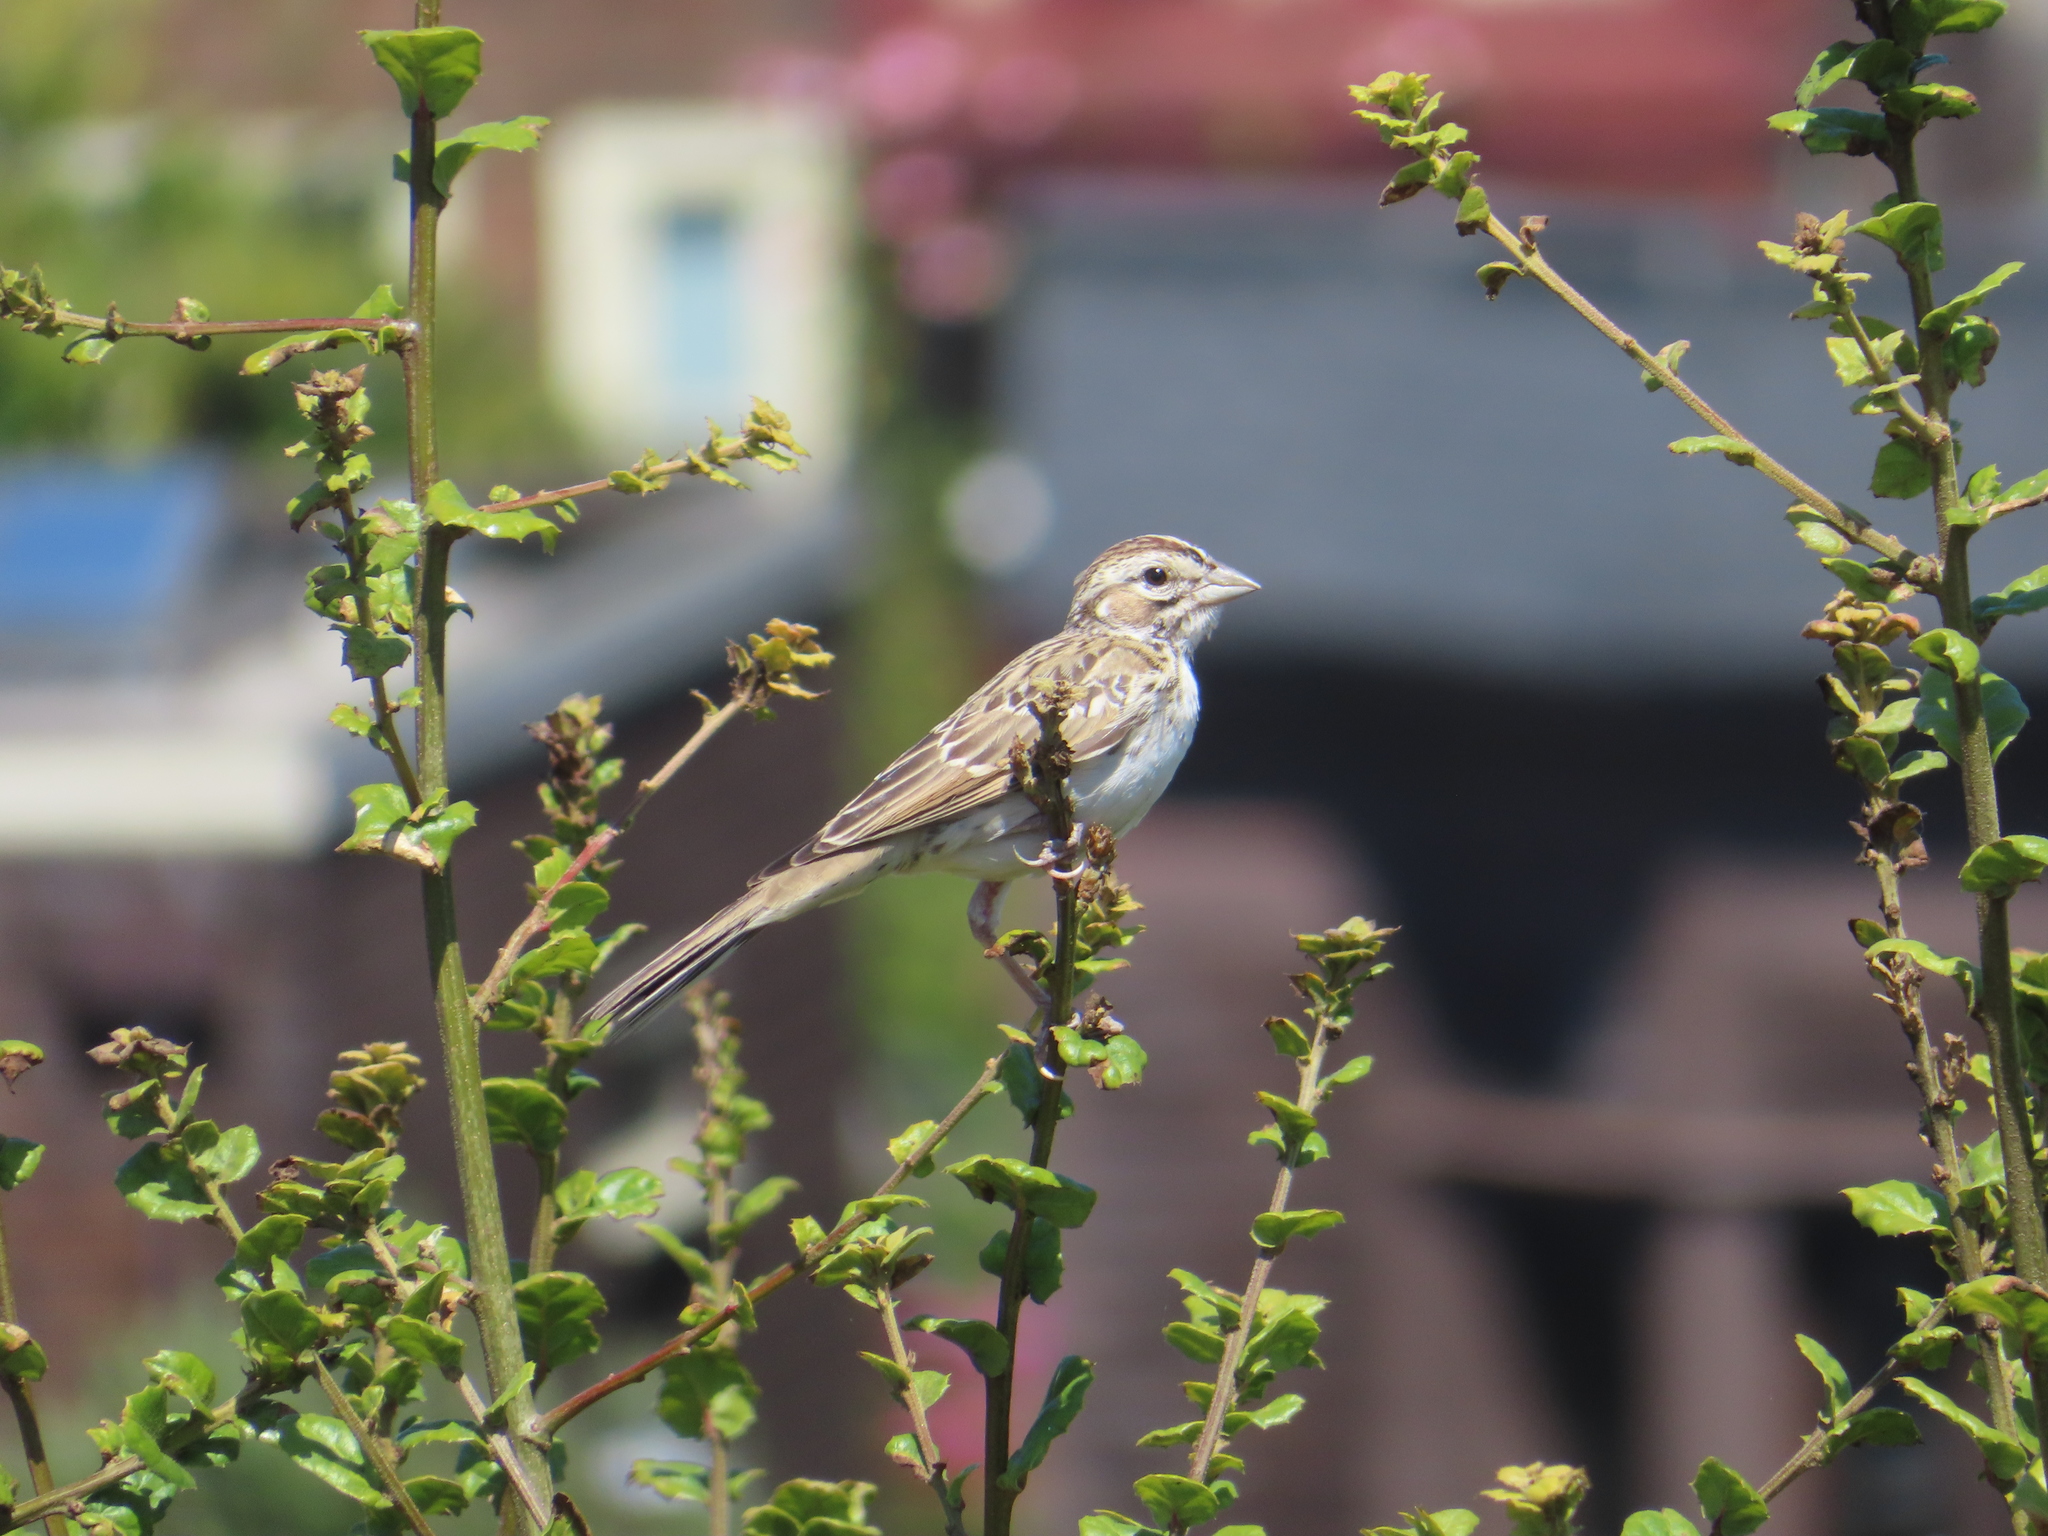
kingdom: Animalia
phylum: Chordata
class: Aves
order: Passeriformes
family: Passerellidae
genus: Chondestes
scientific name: Chondestes grammacus
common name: Lark sparrow
